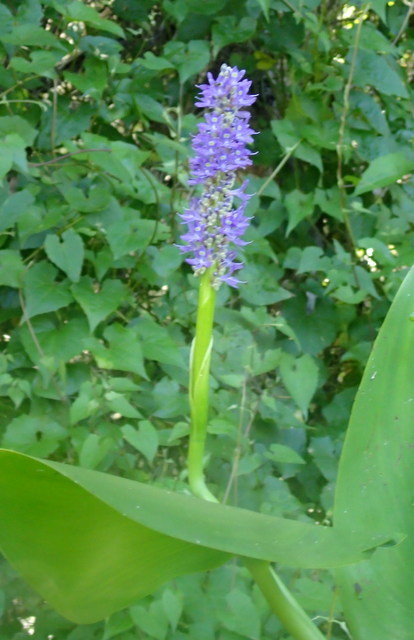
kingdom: Plantae
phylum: Tracheophyta
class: Liliopsida
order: Commelinales
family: Pontederiaceae
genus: Pontederia
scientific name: Pontederia cordata
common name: Pickerelweed
